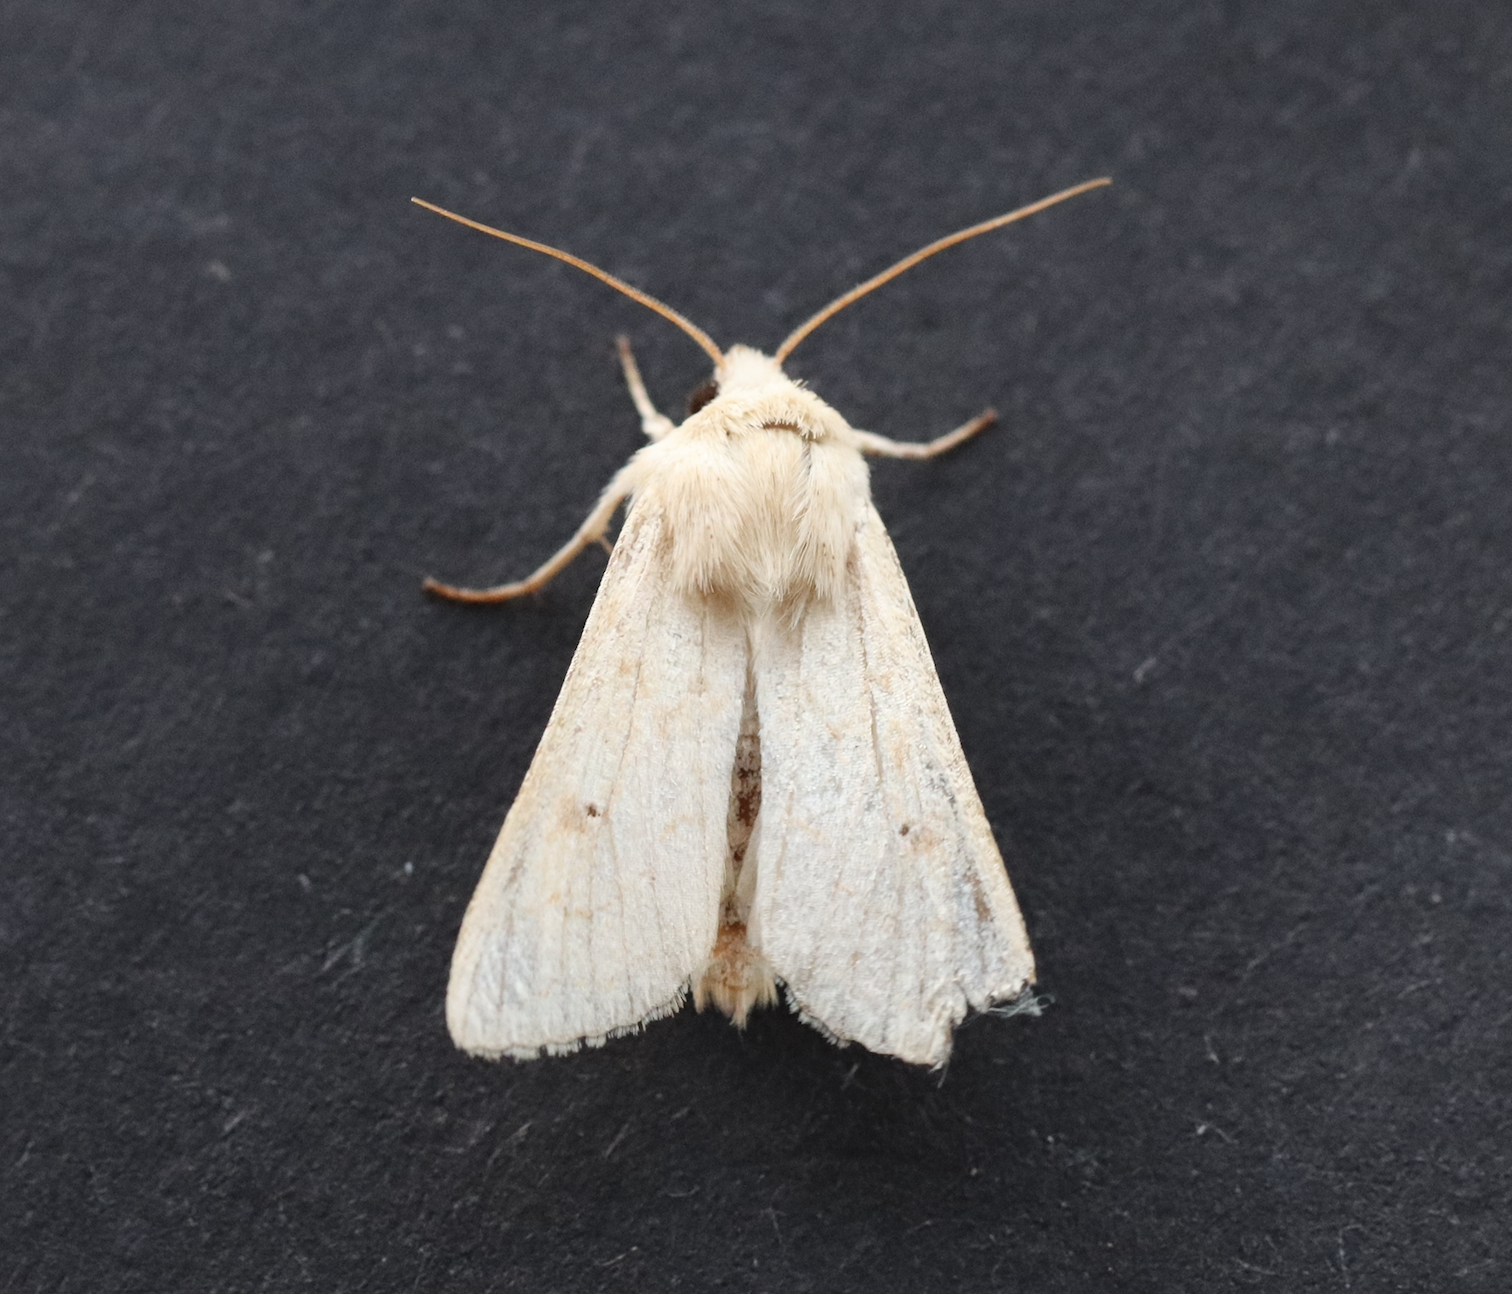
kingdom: Animalia
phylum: Arthropoda
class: Insecta
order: Lepidoptera
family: Noctuidae
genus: Mythimna
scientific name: Mythimna vitellina
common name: Delicate
